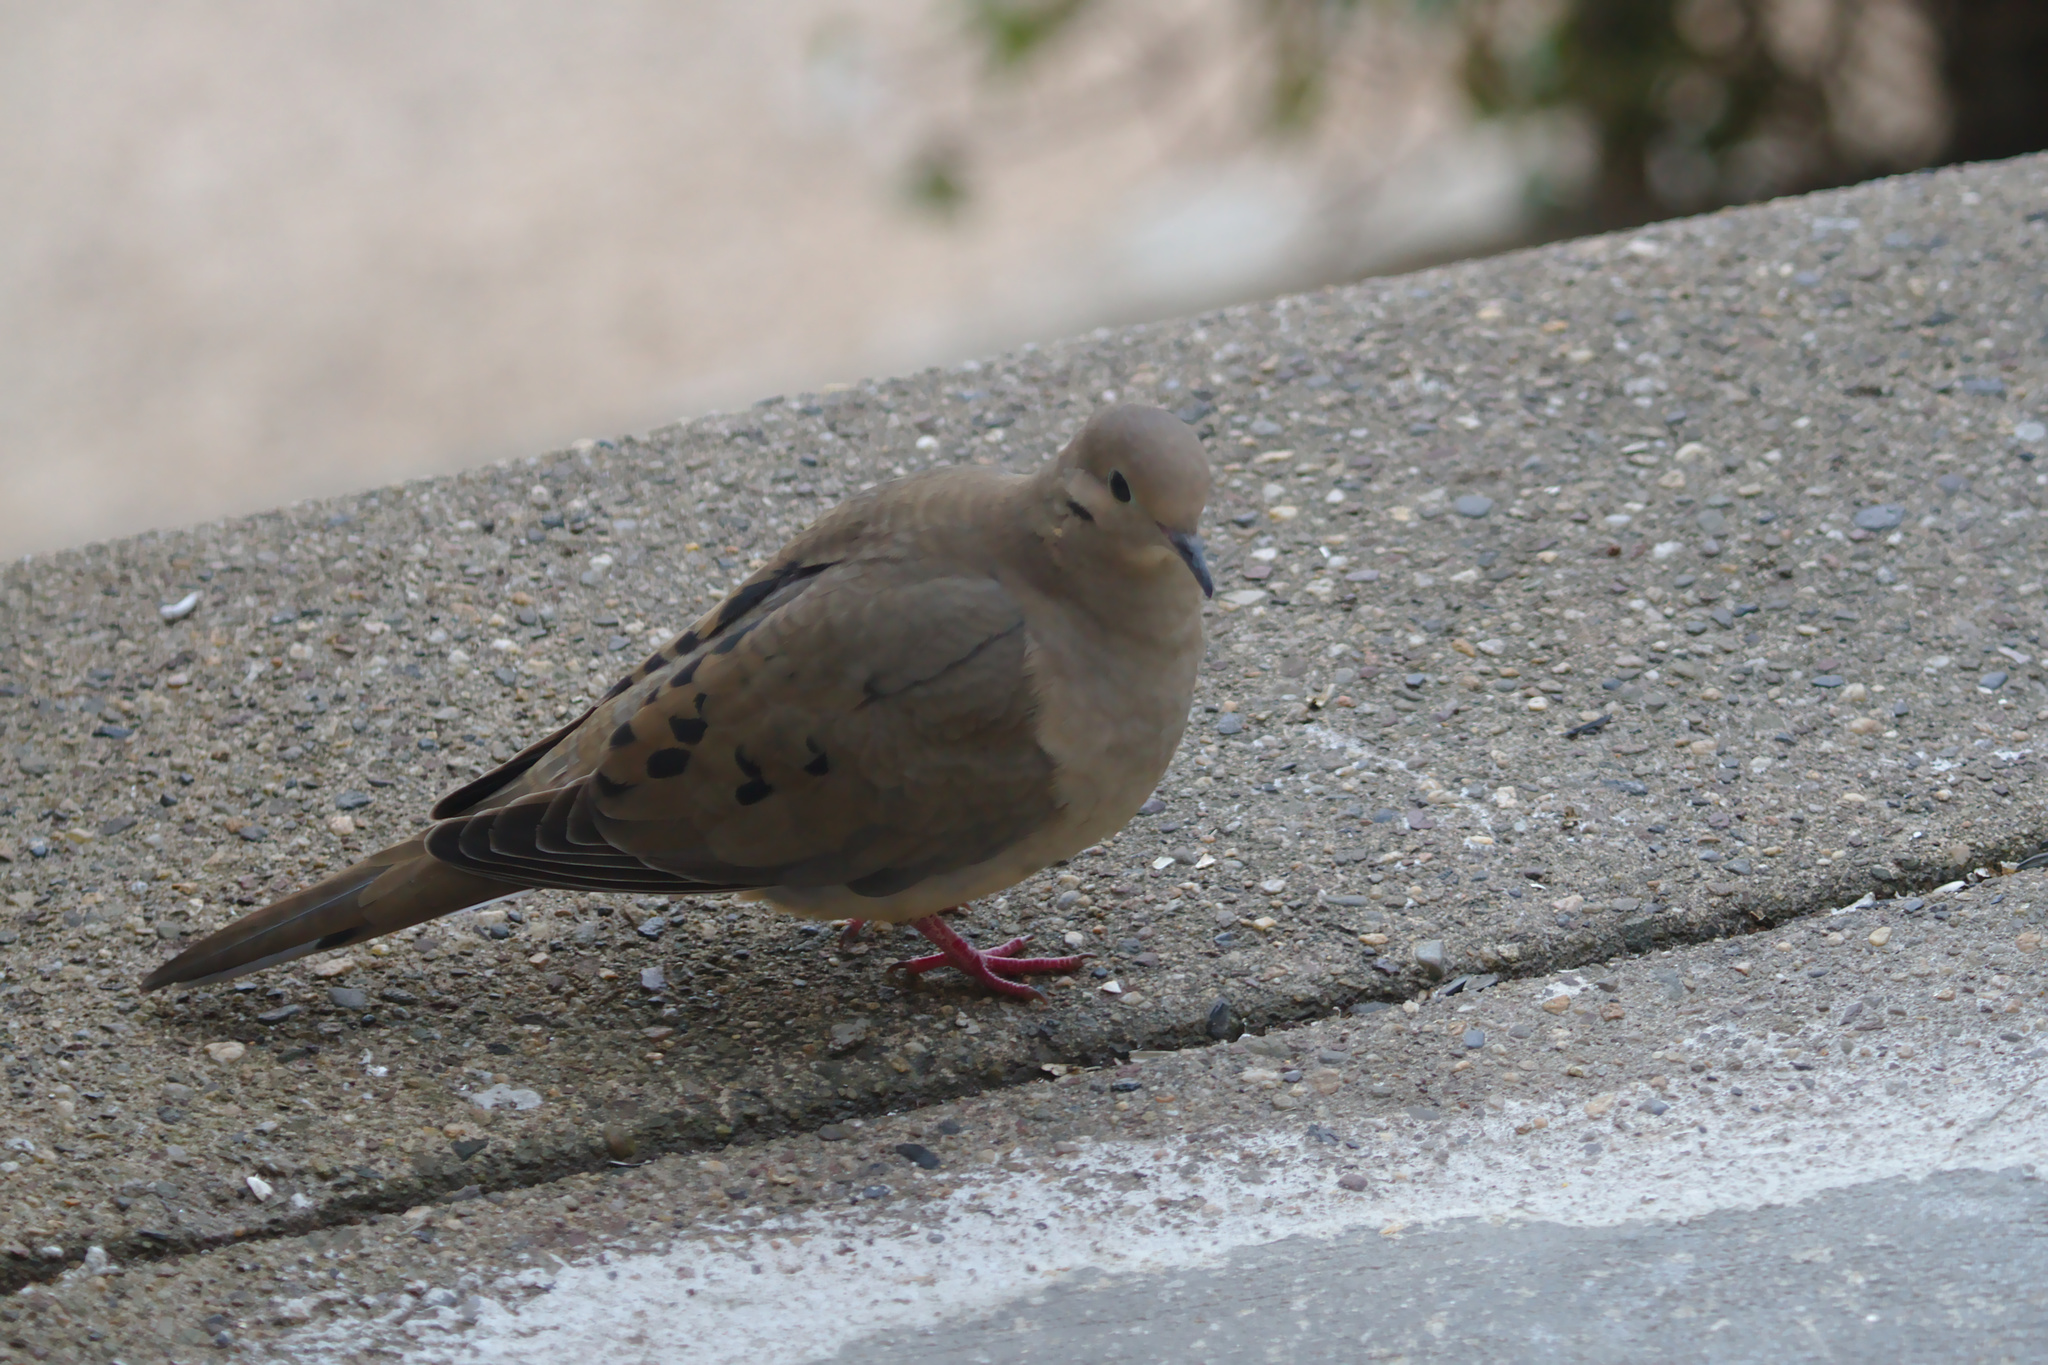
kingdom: Animalia
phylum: Chordata
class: Aves
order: Columbiformes
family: Columbidae
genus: Zenaida
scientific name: Zenaida macroura
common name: Mourning dove
